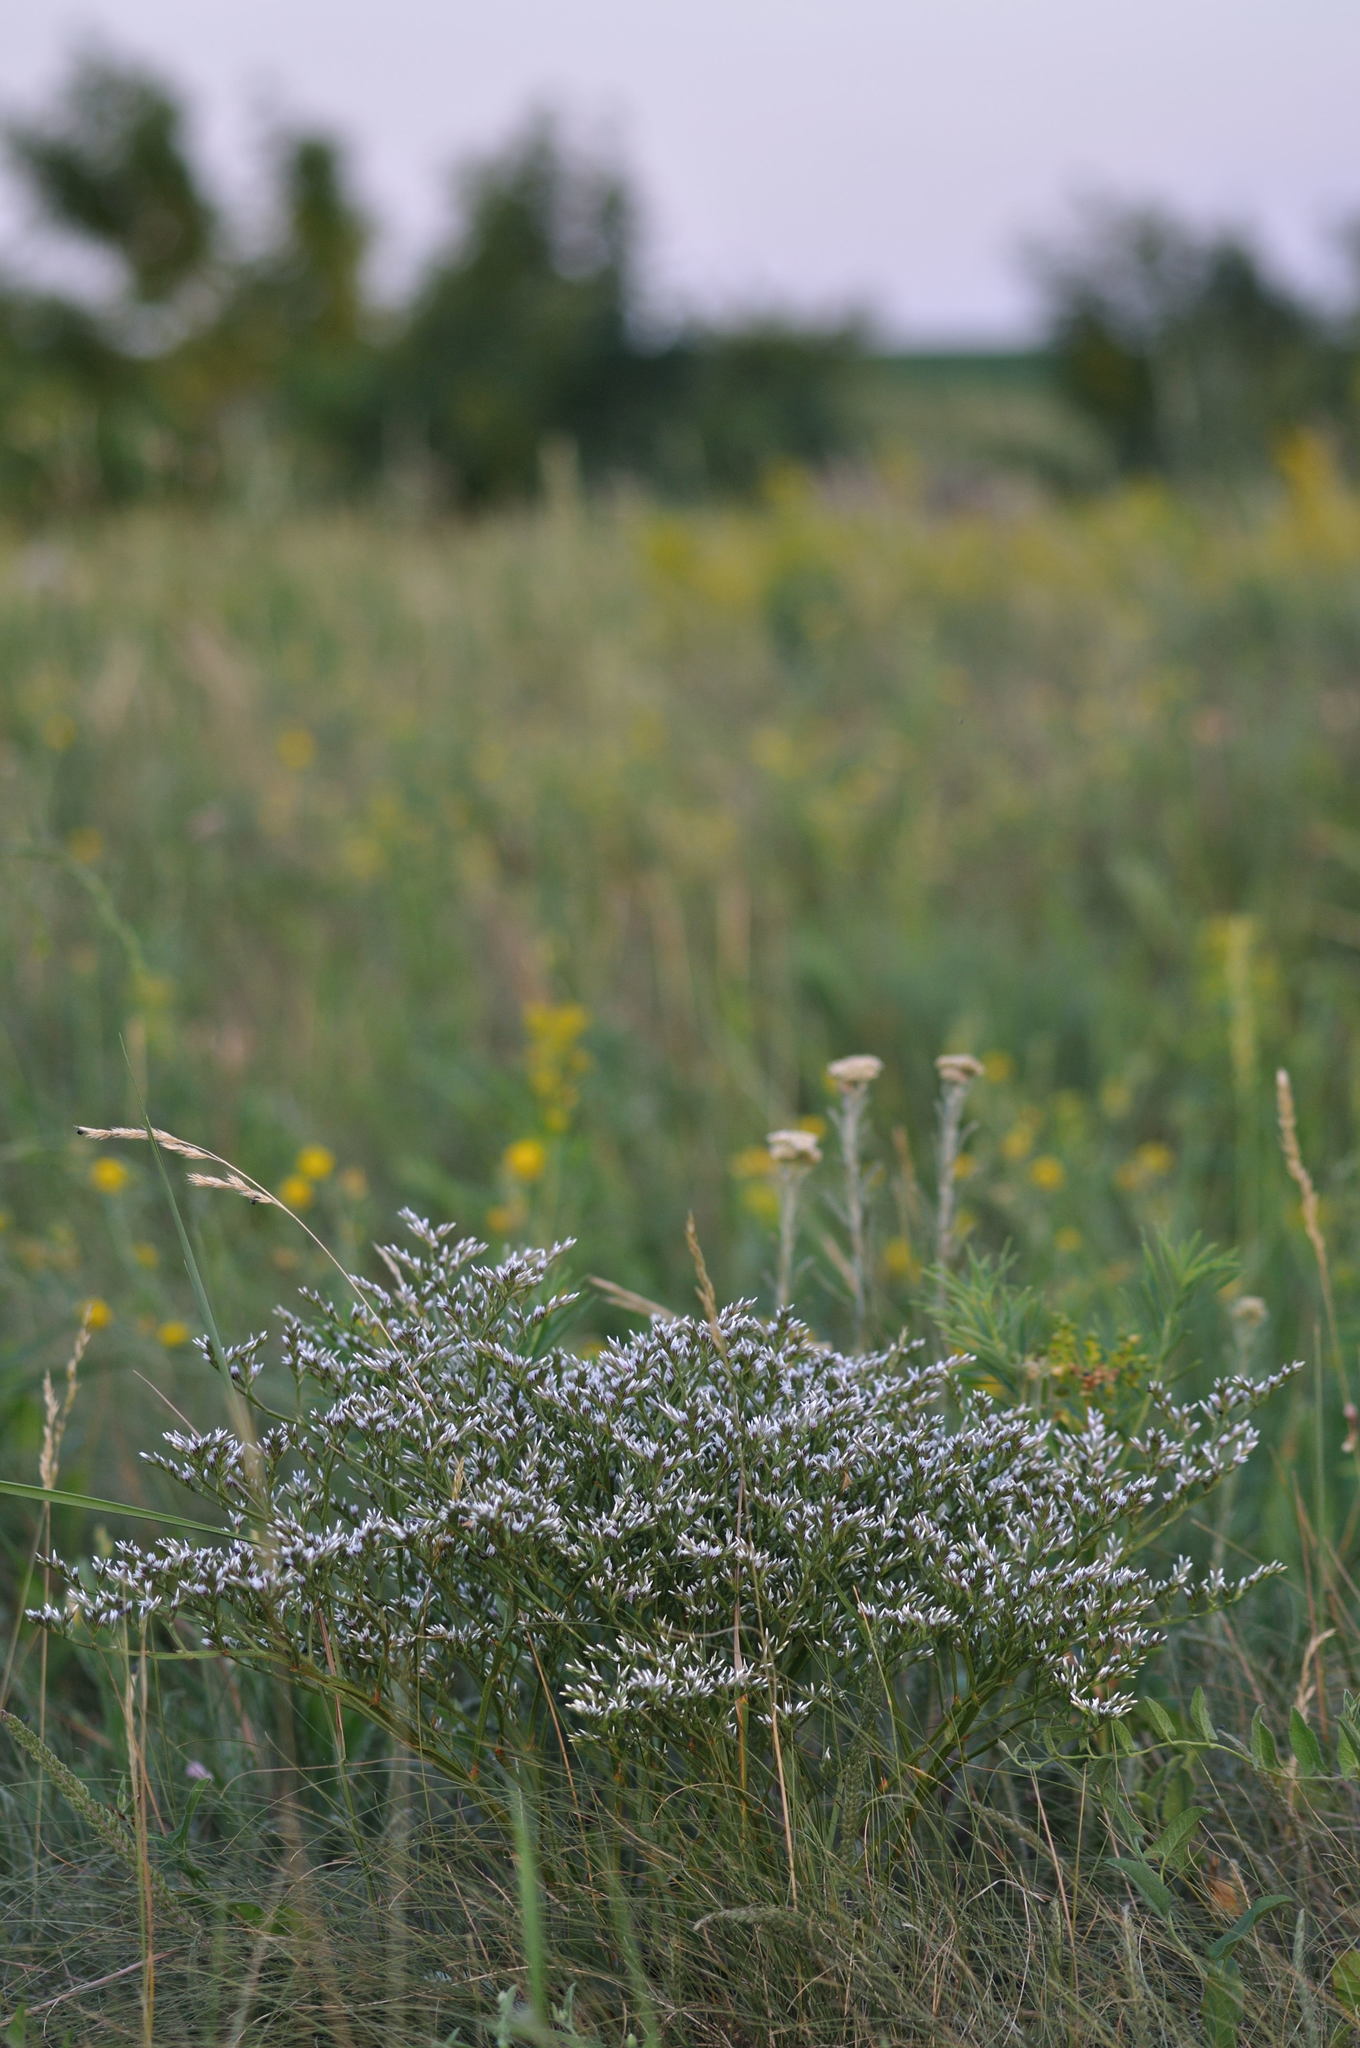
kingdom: Plantae
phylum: Tracheophyta
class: Magnoliopsida
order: Caryophyllales
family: Plumbaginaceae
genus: Goniolimon
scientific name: Goniolimon tataricum
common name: Statice
